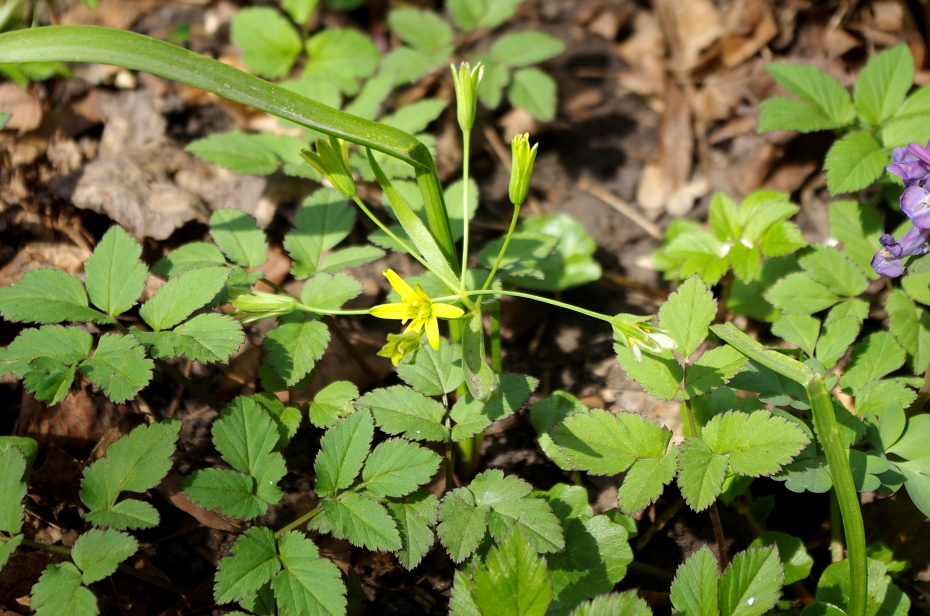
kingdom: Plantae
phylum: Tracheophyta
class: Liliopsida
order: Liliales
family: Liliaceae
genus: Gagea
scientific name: Gagea lutea
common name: Yellow star-of-bethlehem
